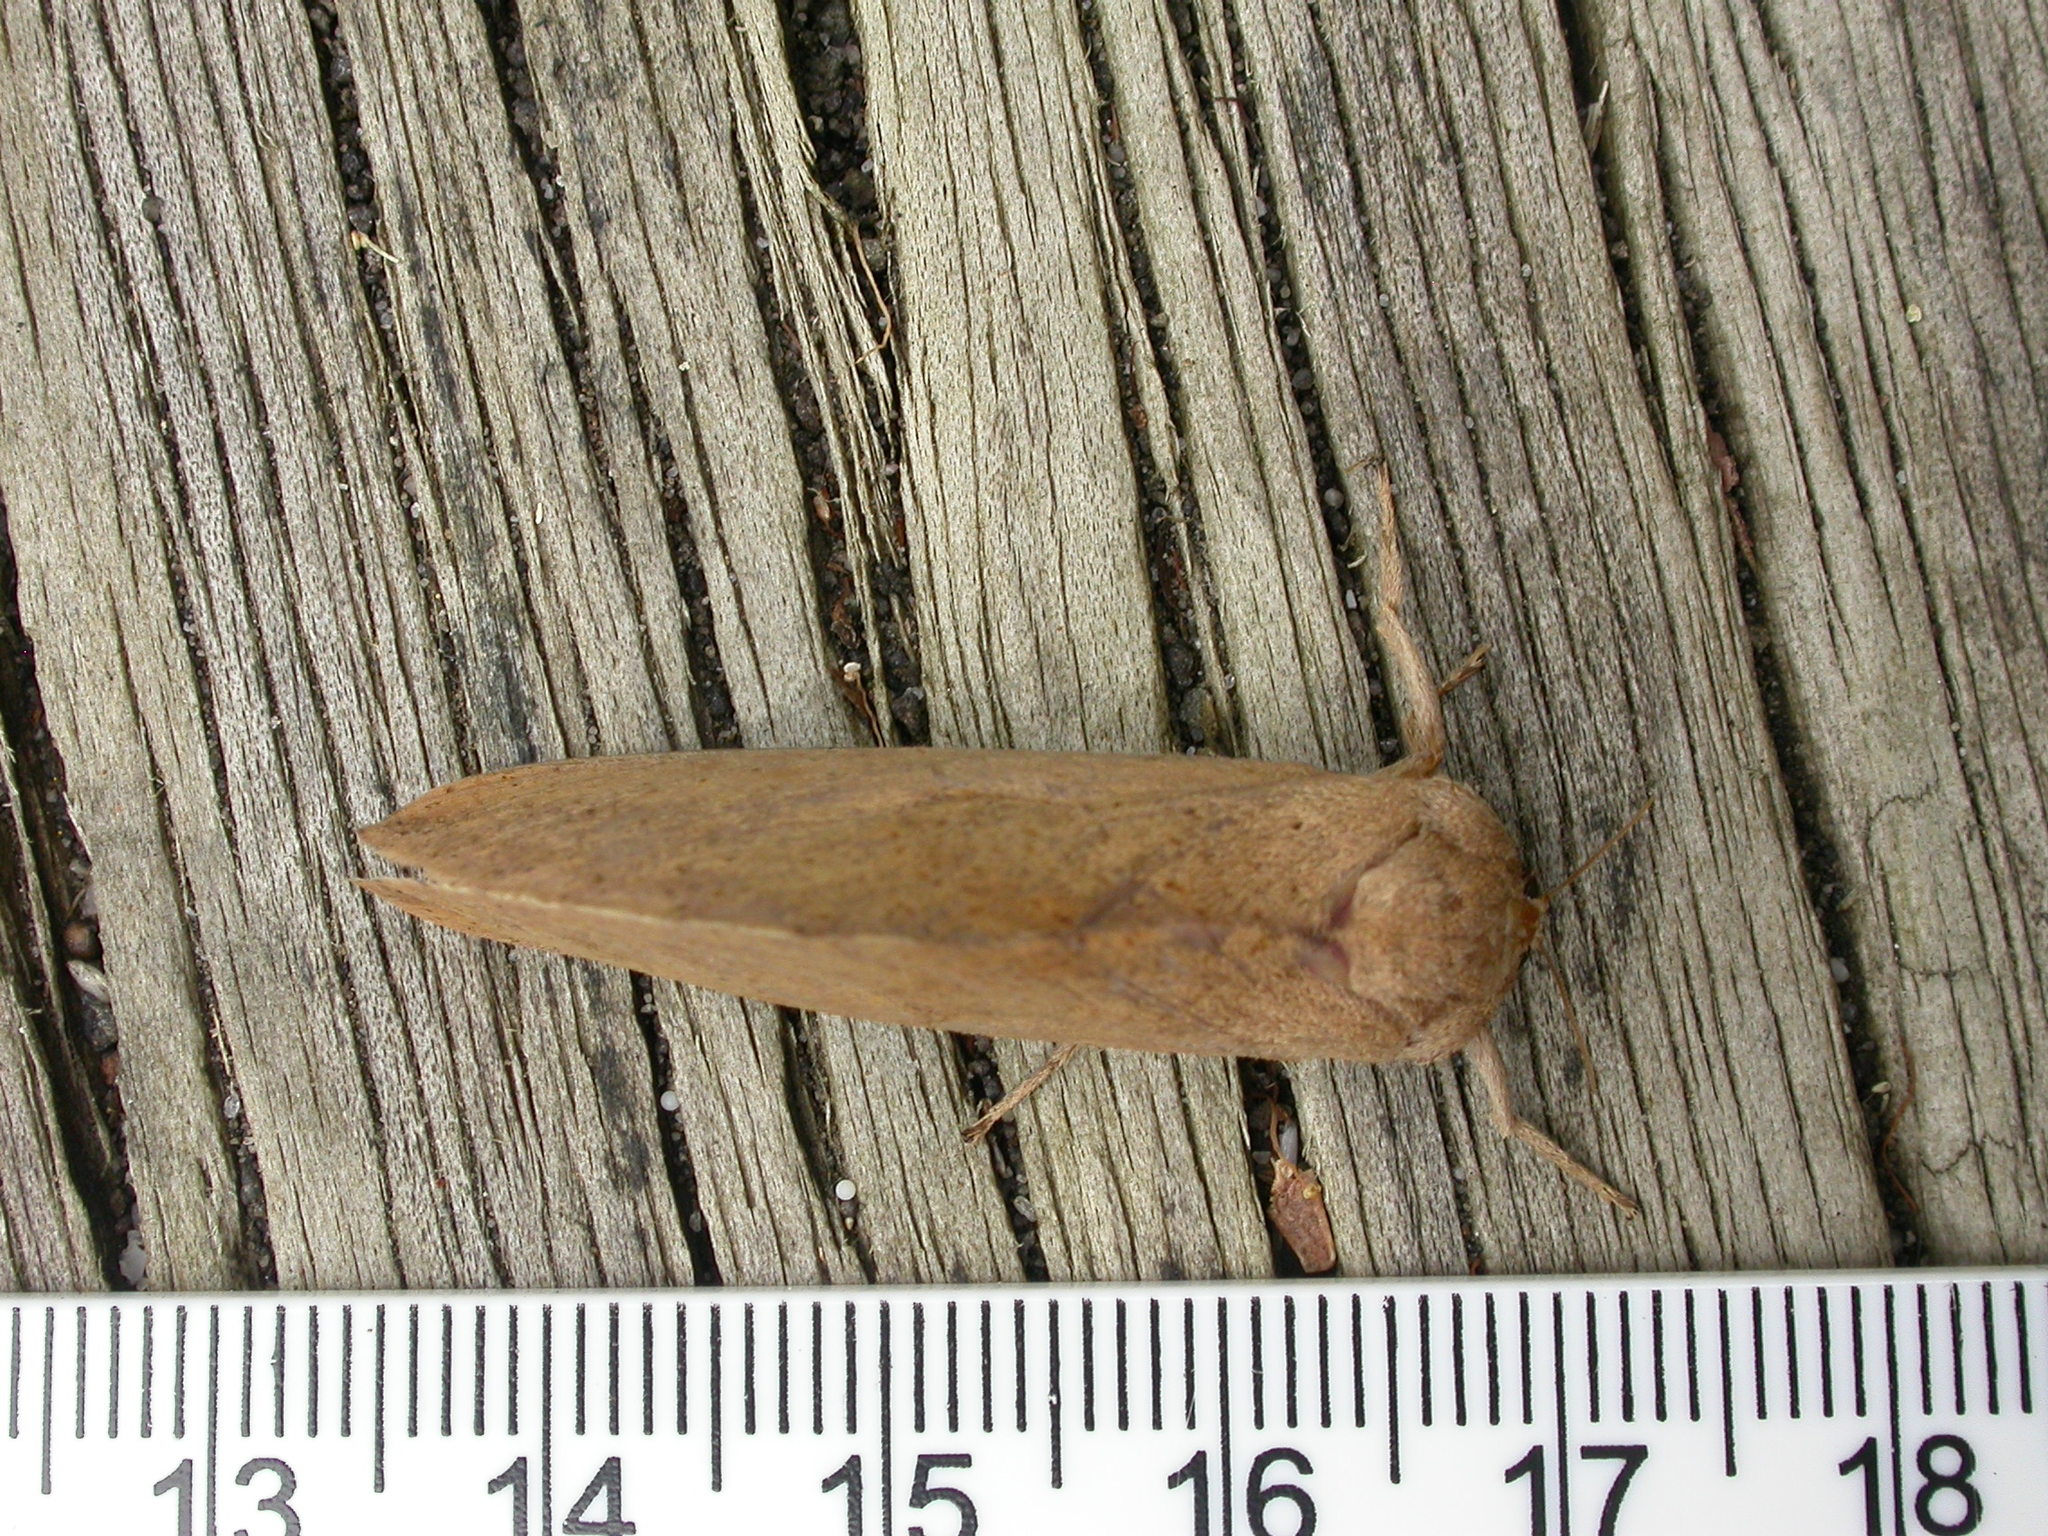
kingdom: Animalia
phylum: Arthropoda
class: Insecta
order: Lepidoptera
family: Hepialidae
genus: Elhamma
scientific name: Elhamma australasiae
